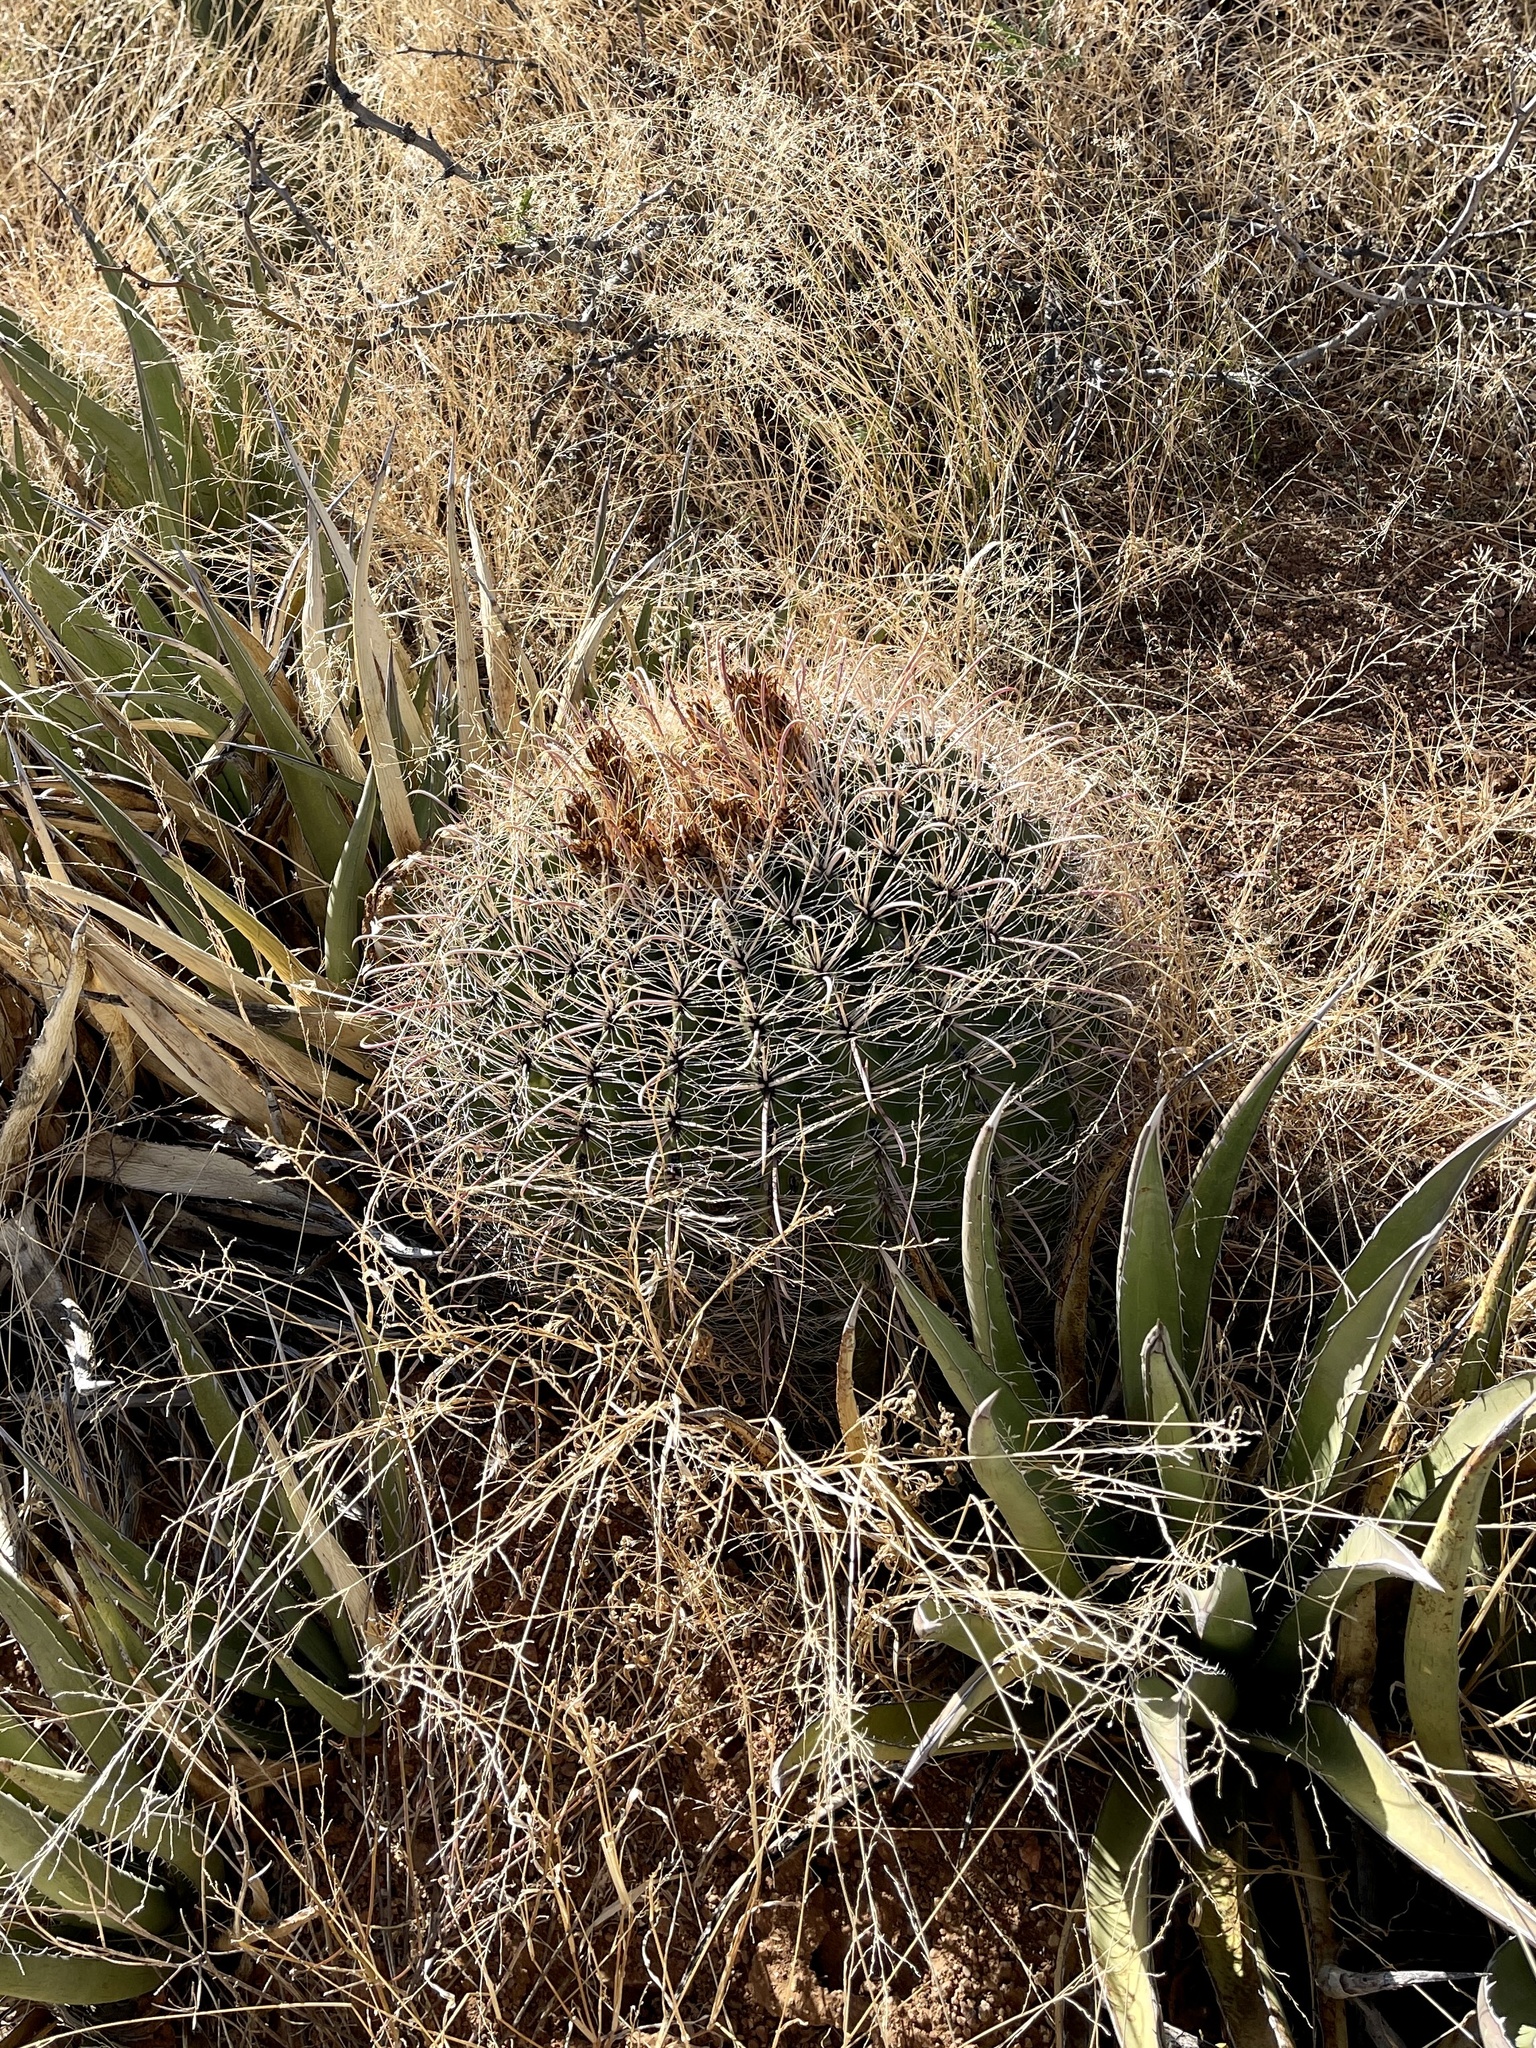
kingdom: Plantae
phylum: Tracheophyta
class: Magnoliopsida
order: Caryophyllales
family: Cactaceae
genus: Ferocactus
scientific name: Ferocactus wislizeni
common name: Candy barrel cactus
